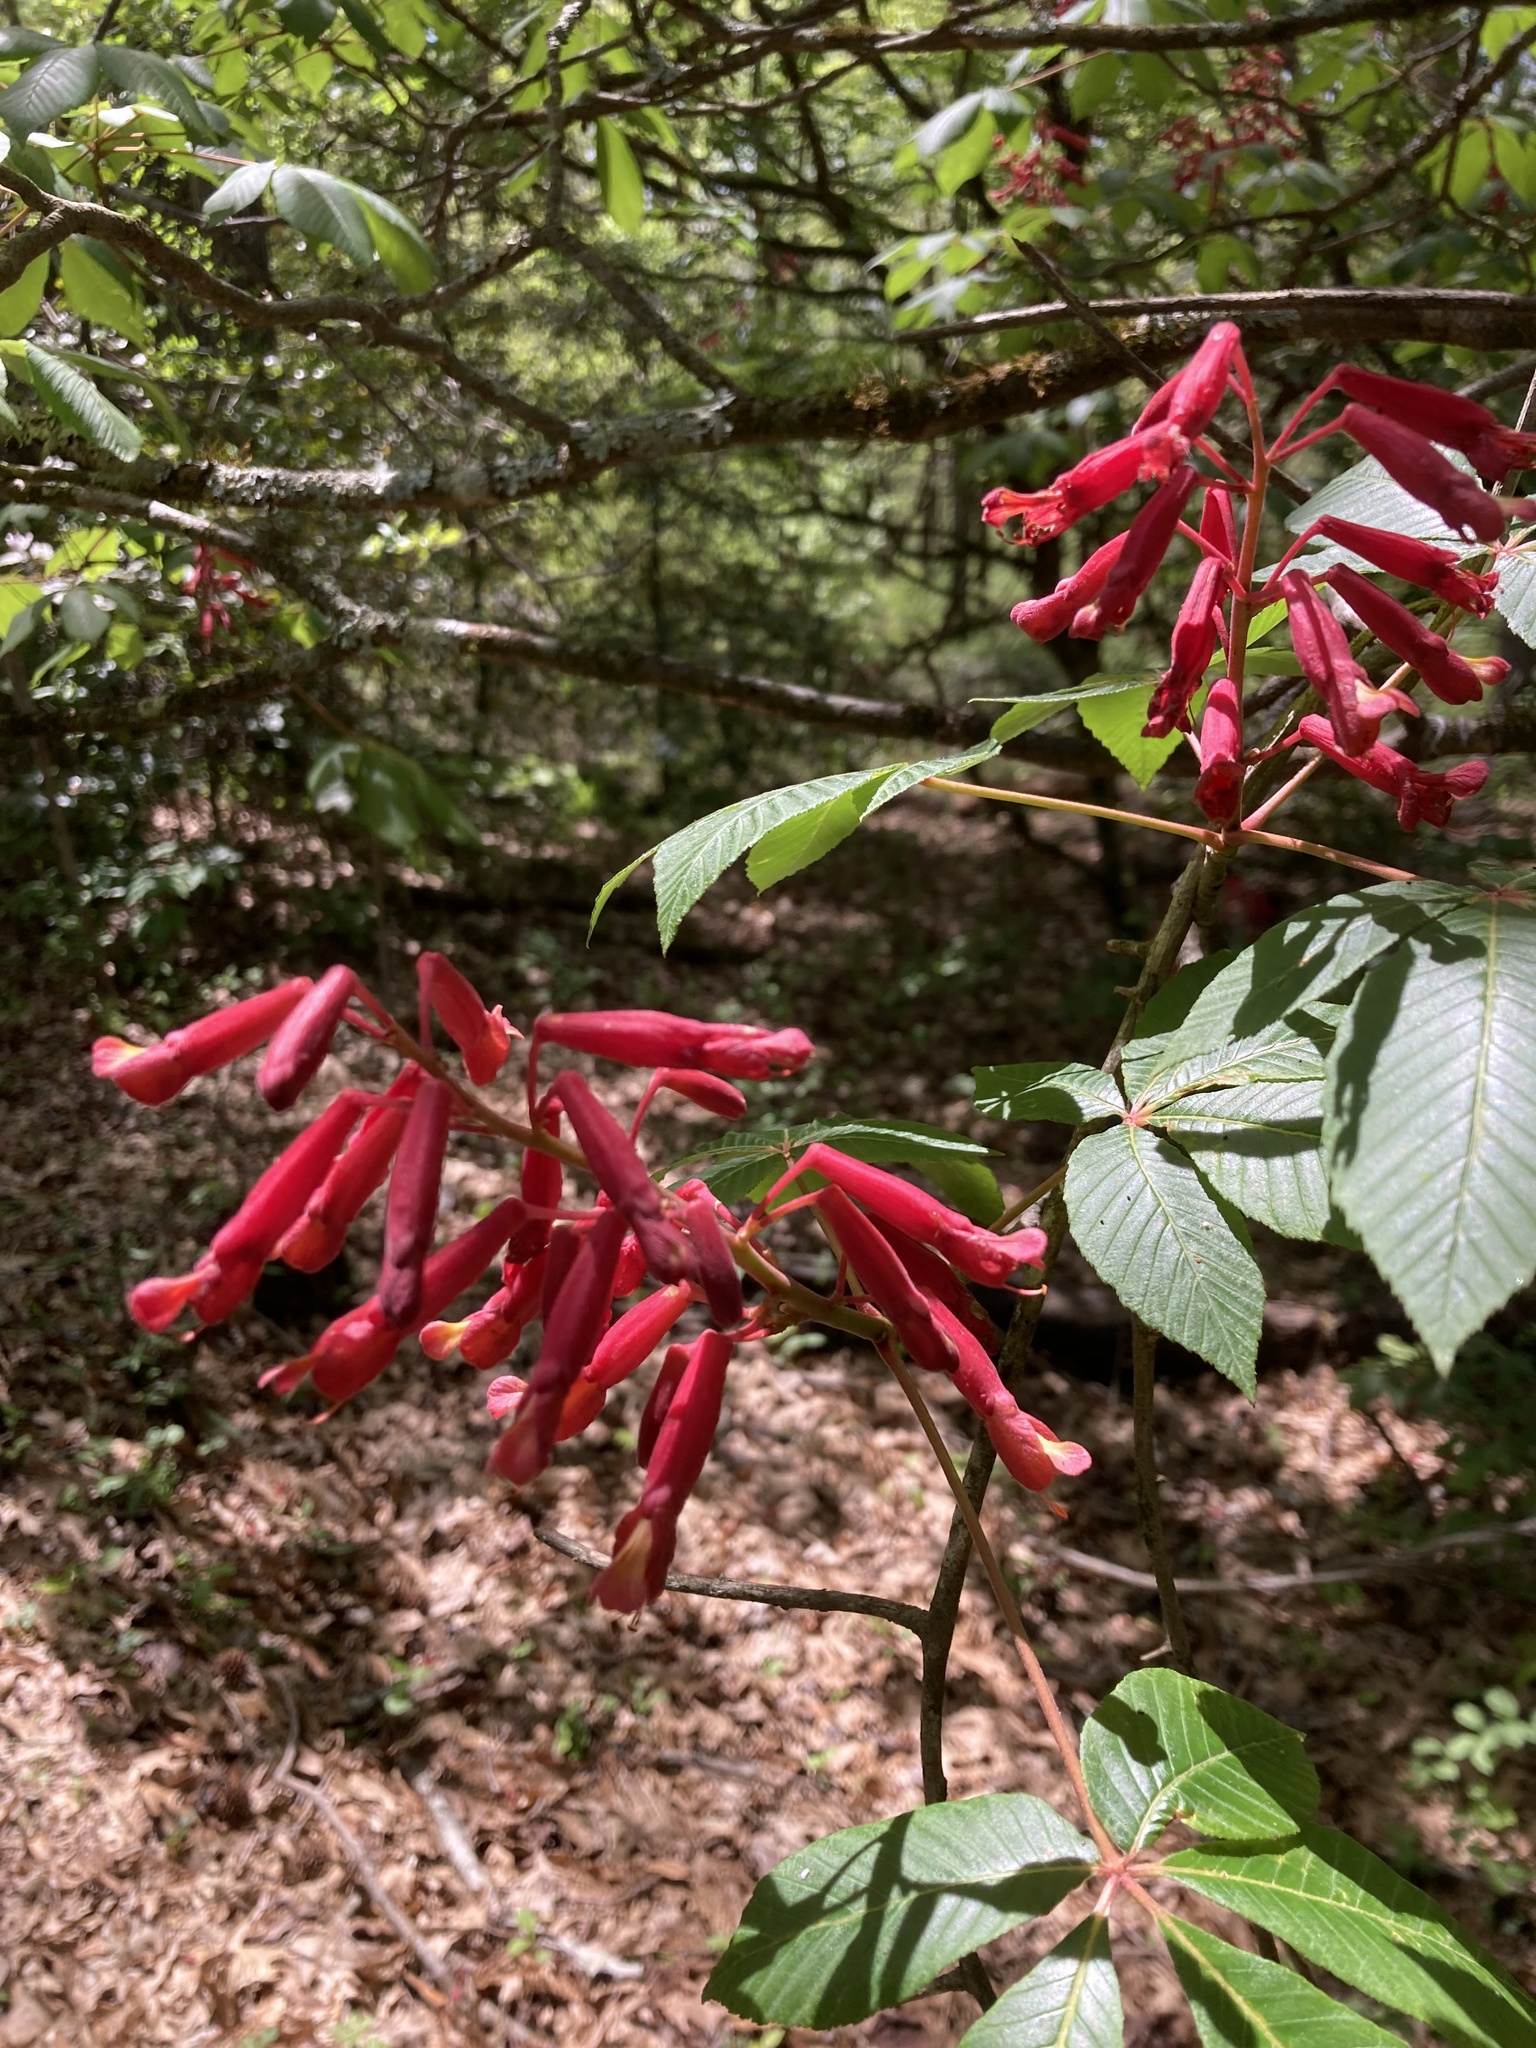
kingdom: Plantae
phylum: Tracheophyta
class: Magnoliopsida
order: Sapindales
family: Sapindaceae
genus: Aesculus
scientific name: Aesculus pavia
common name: Red buckeye
